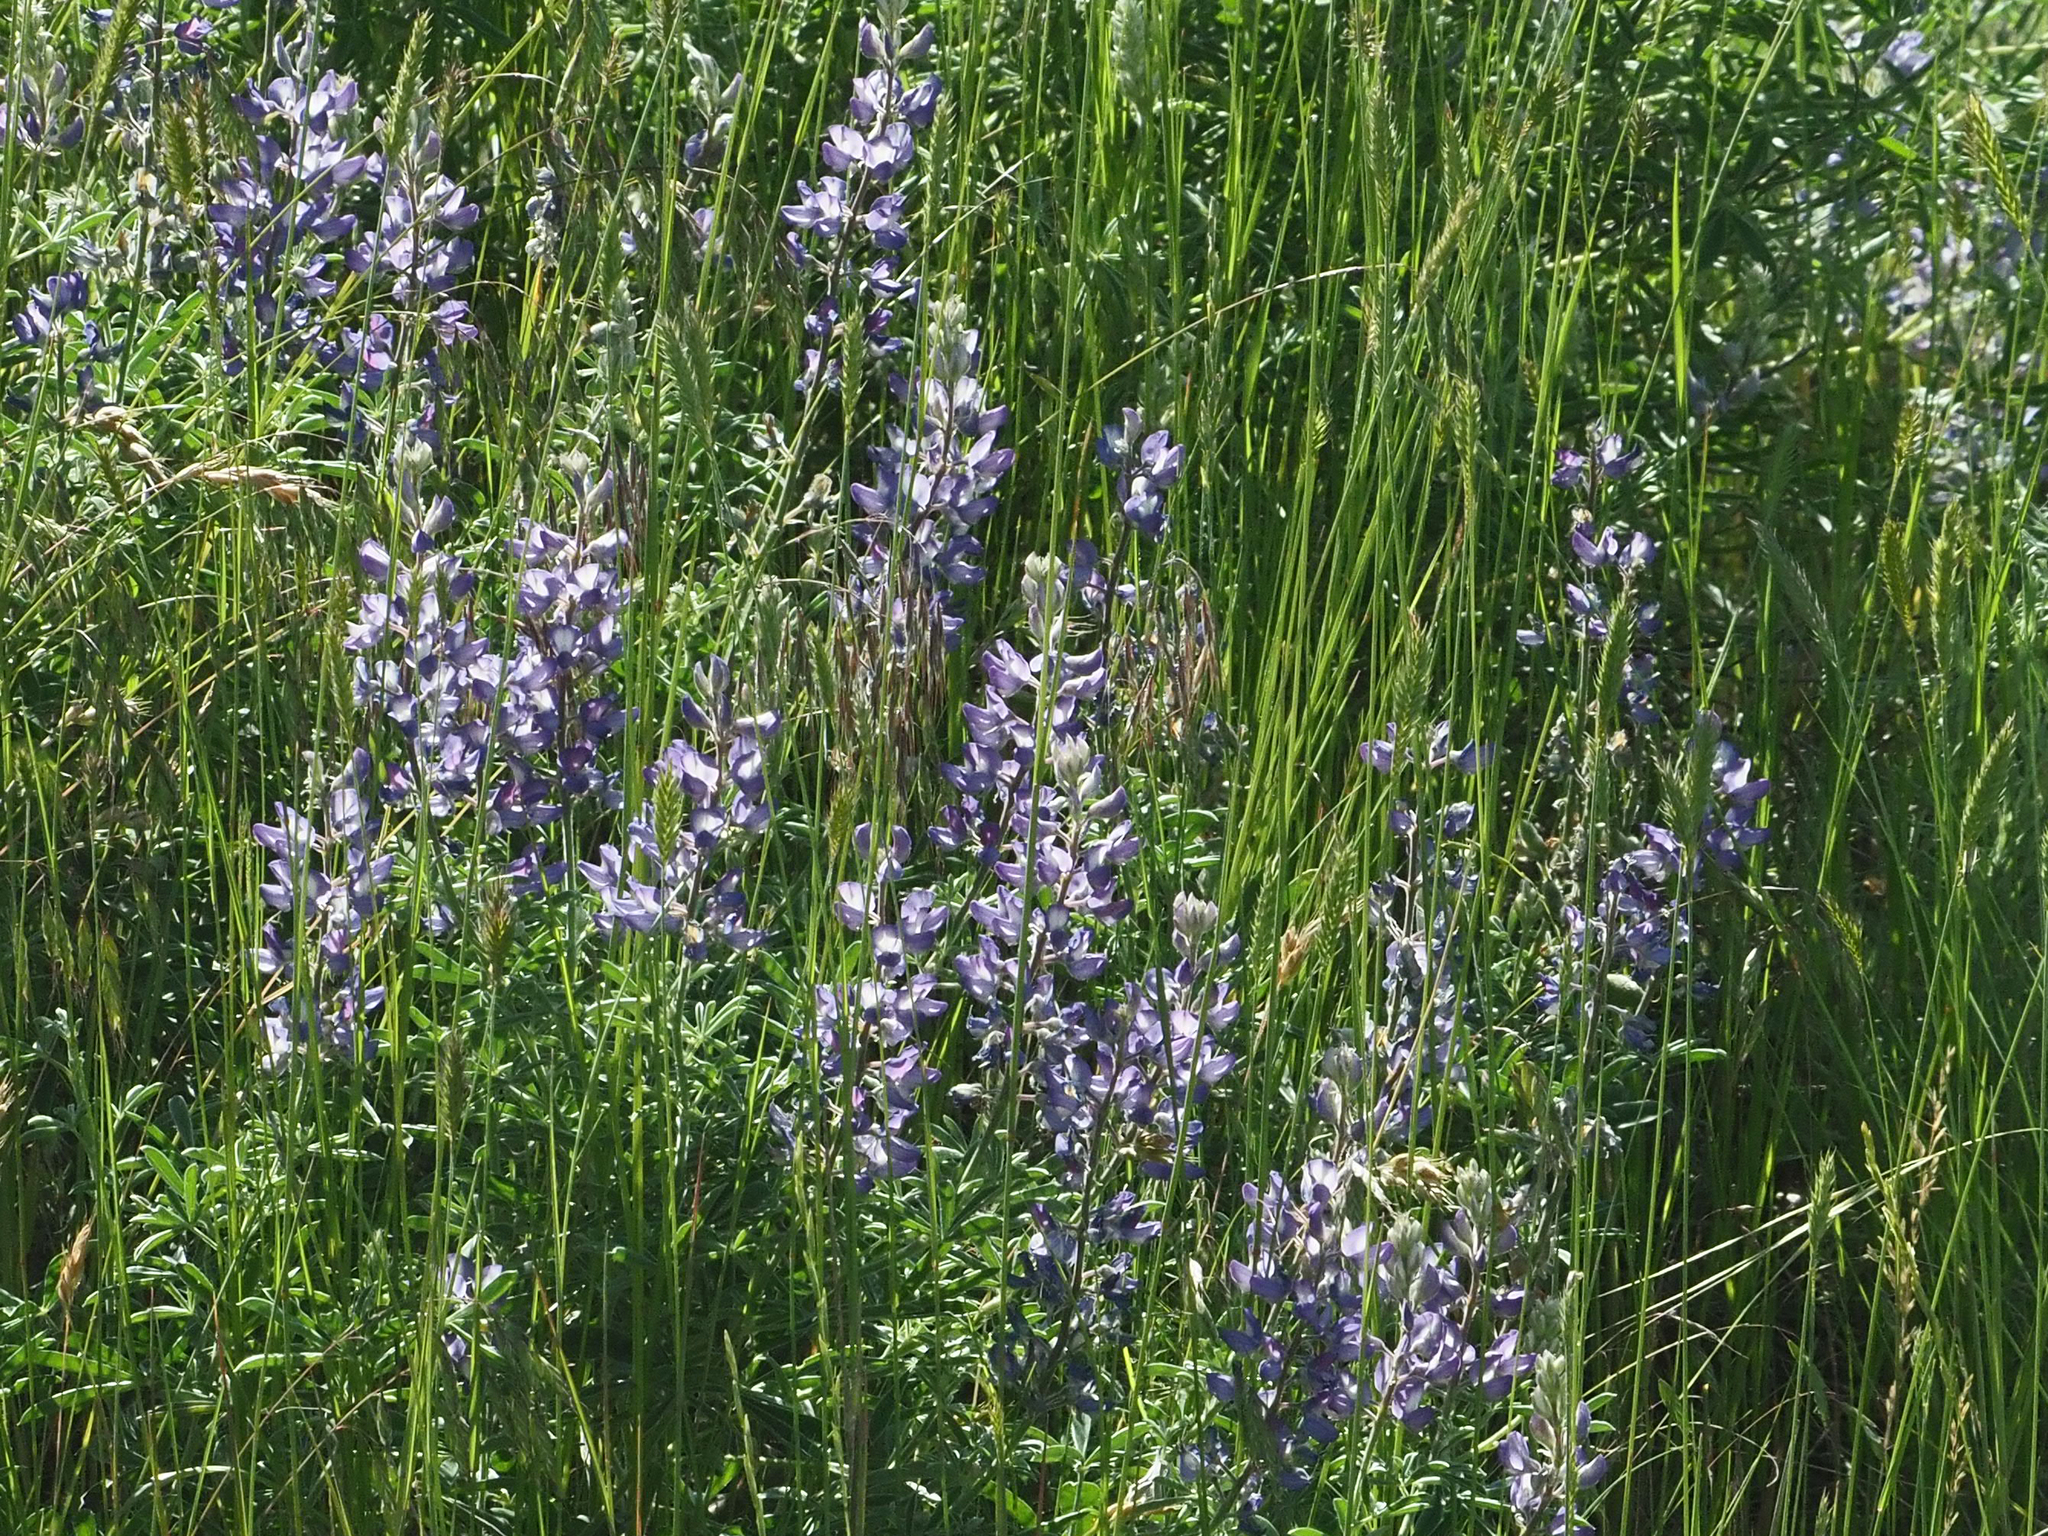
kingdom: Plantae
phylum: Tracheophyta
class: Magnoliopsida
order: Fabales
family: Fabaceae
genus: Lupinus
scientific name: Lupinus sericeus
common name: Silky lupine
